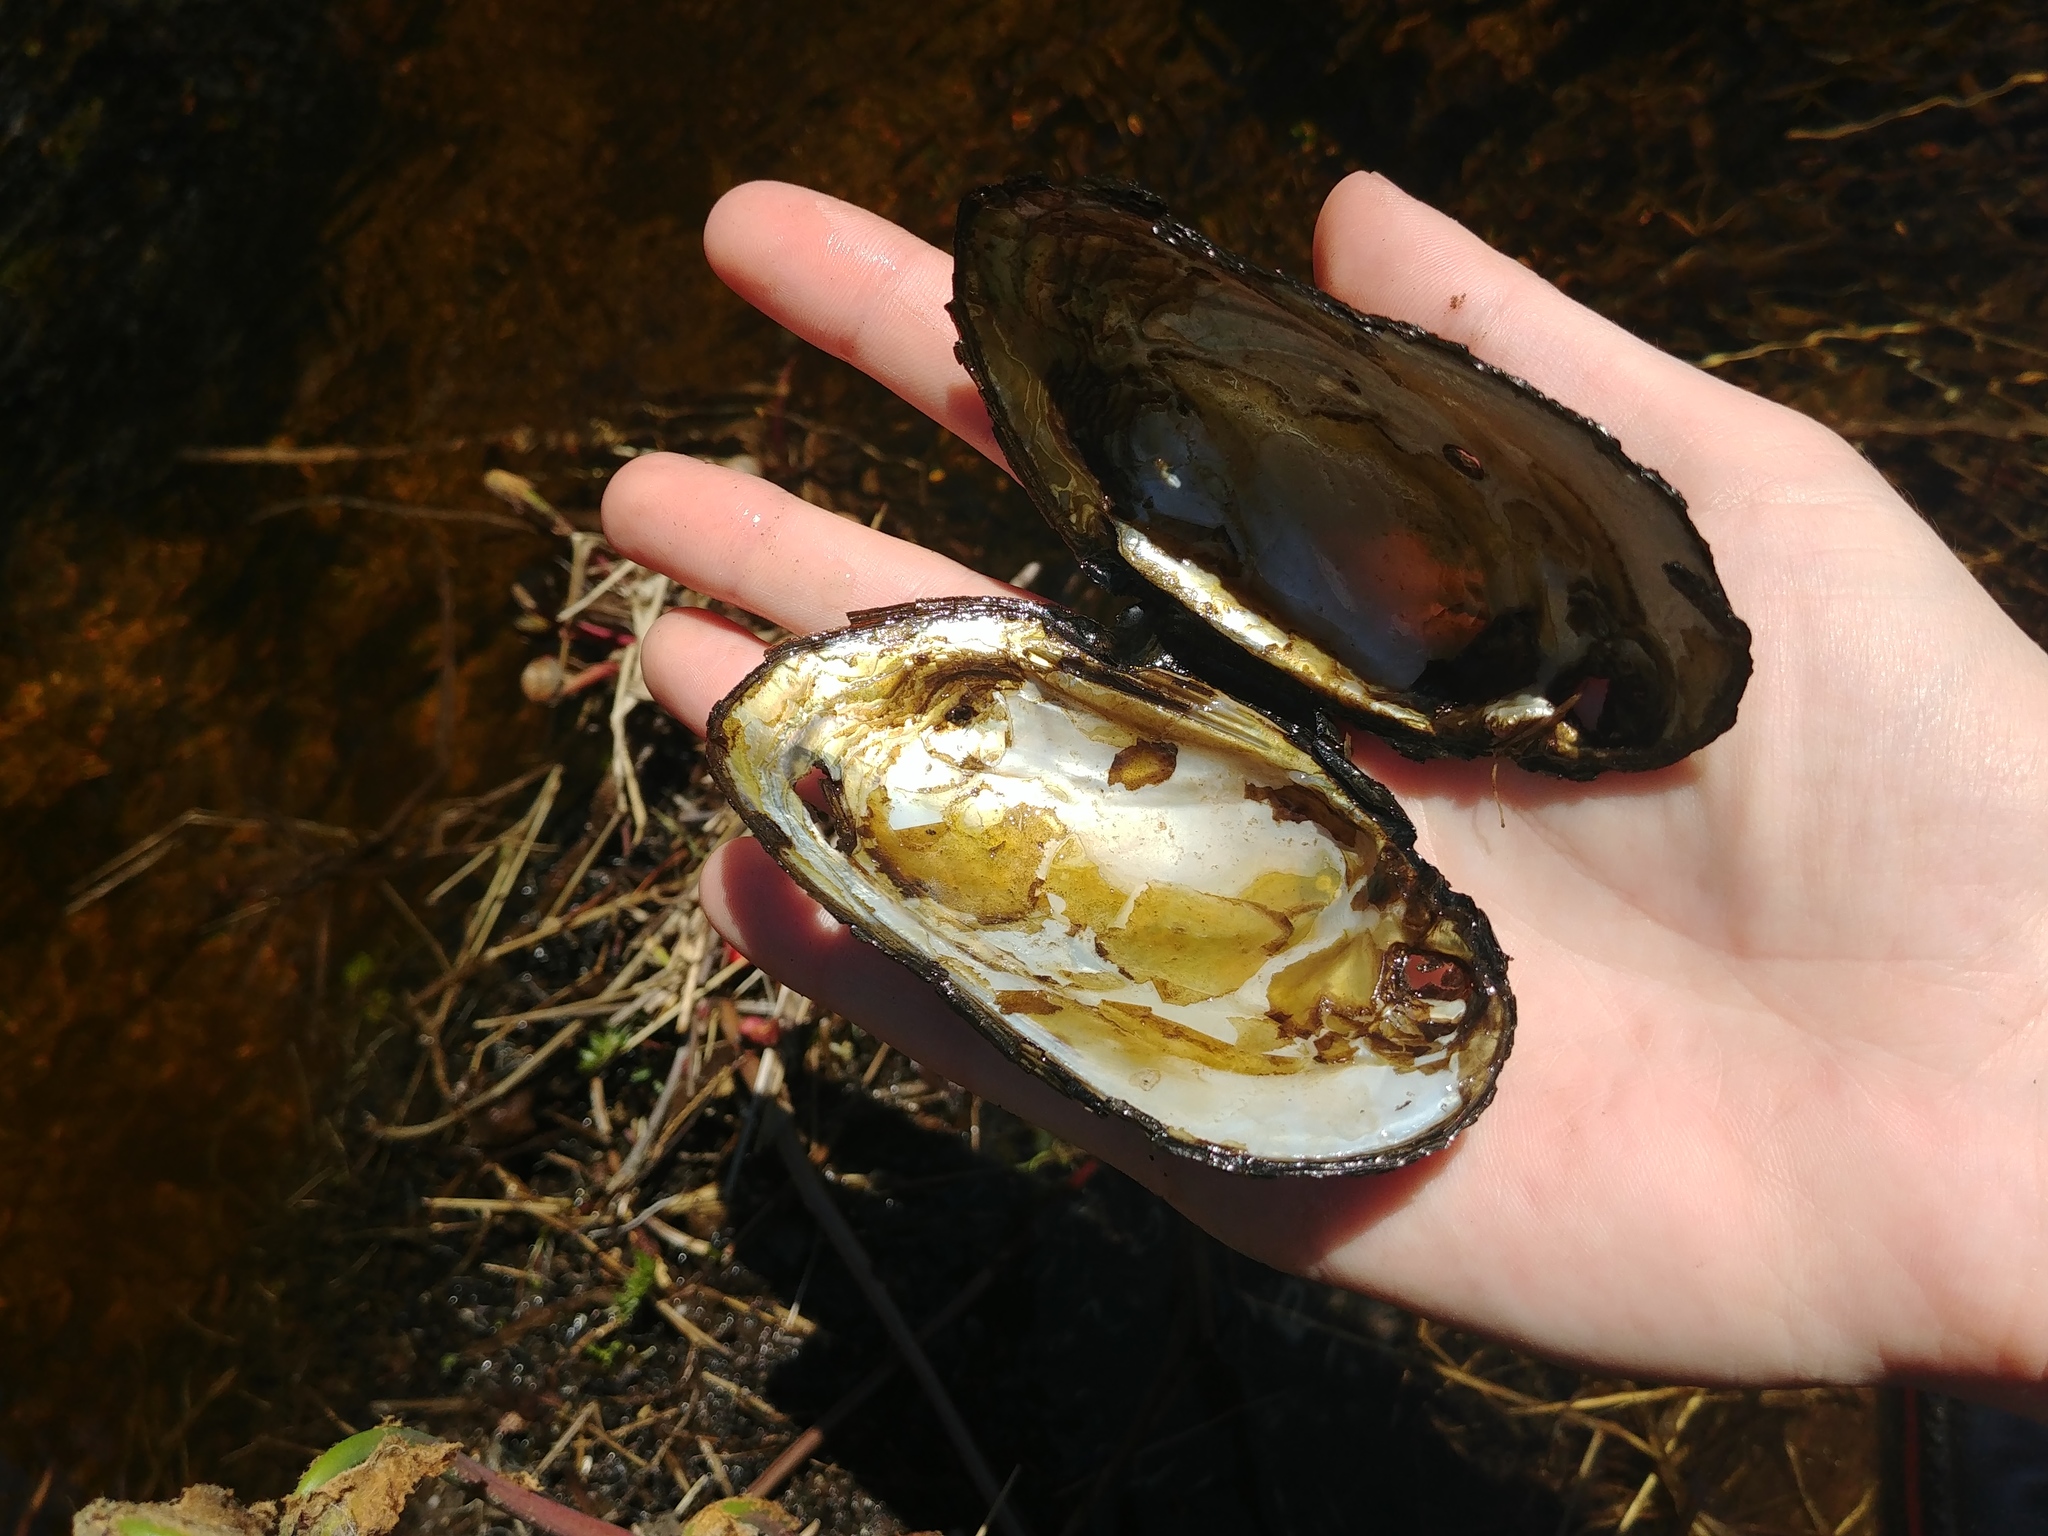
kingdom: Animalia
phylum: Mollusca
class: Bivalvia
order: Unionida
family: Unionidae
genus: Elliptio
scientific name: Elliptio complanata
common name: Eastern elliptio
